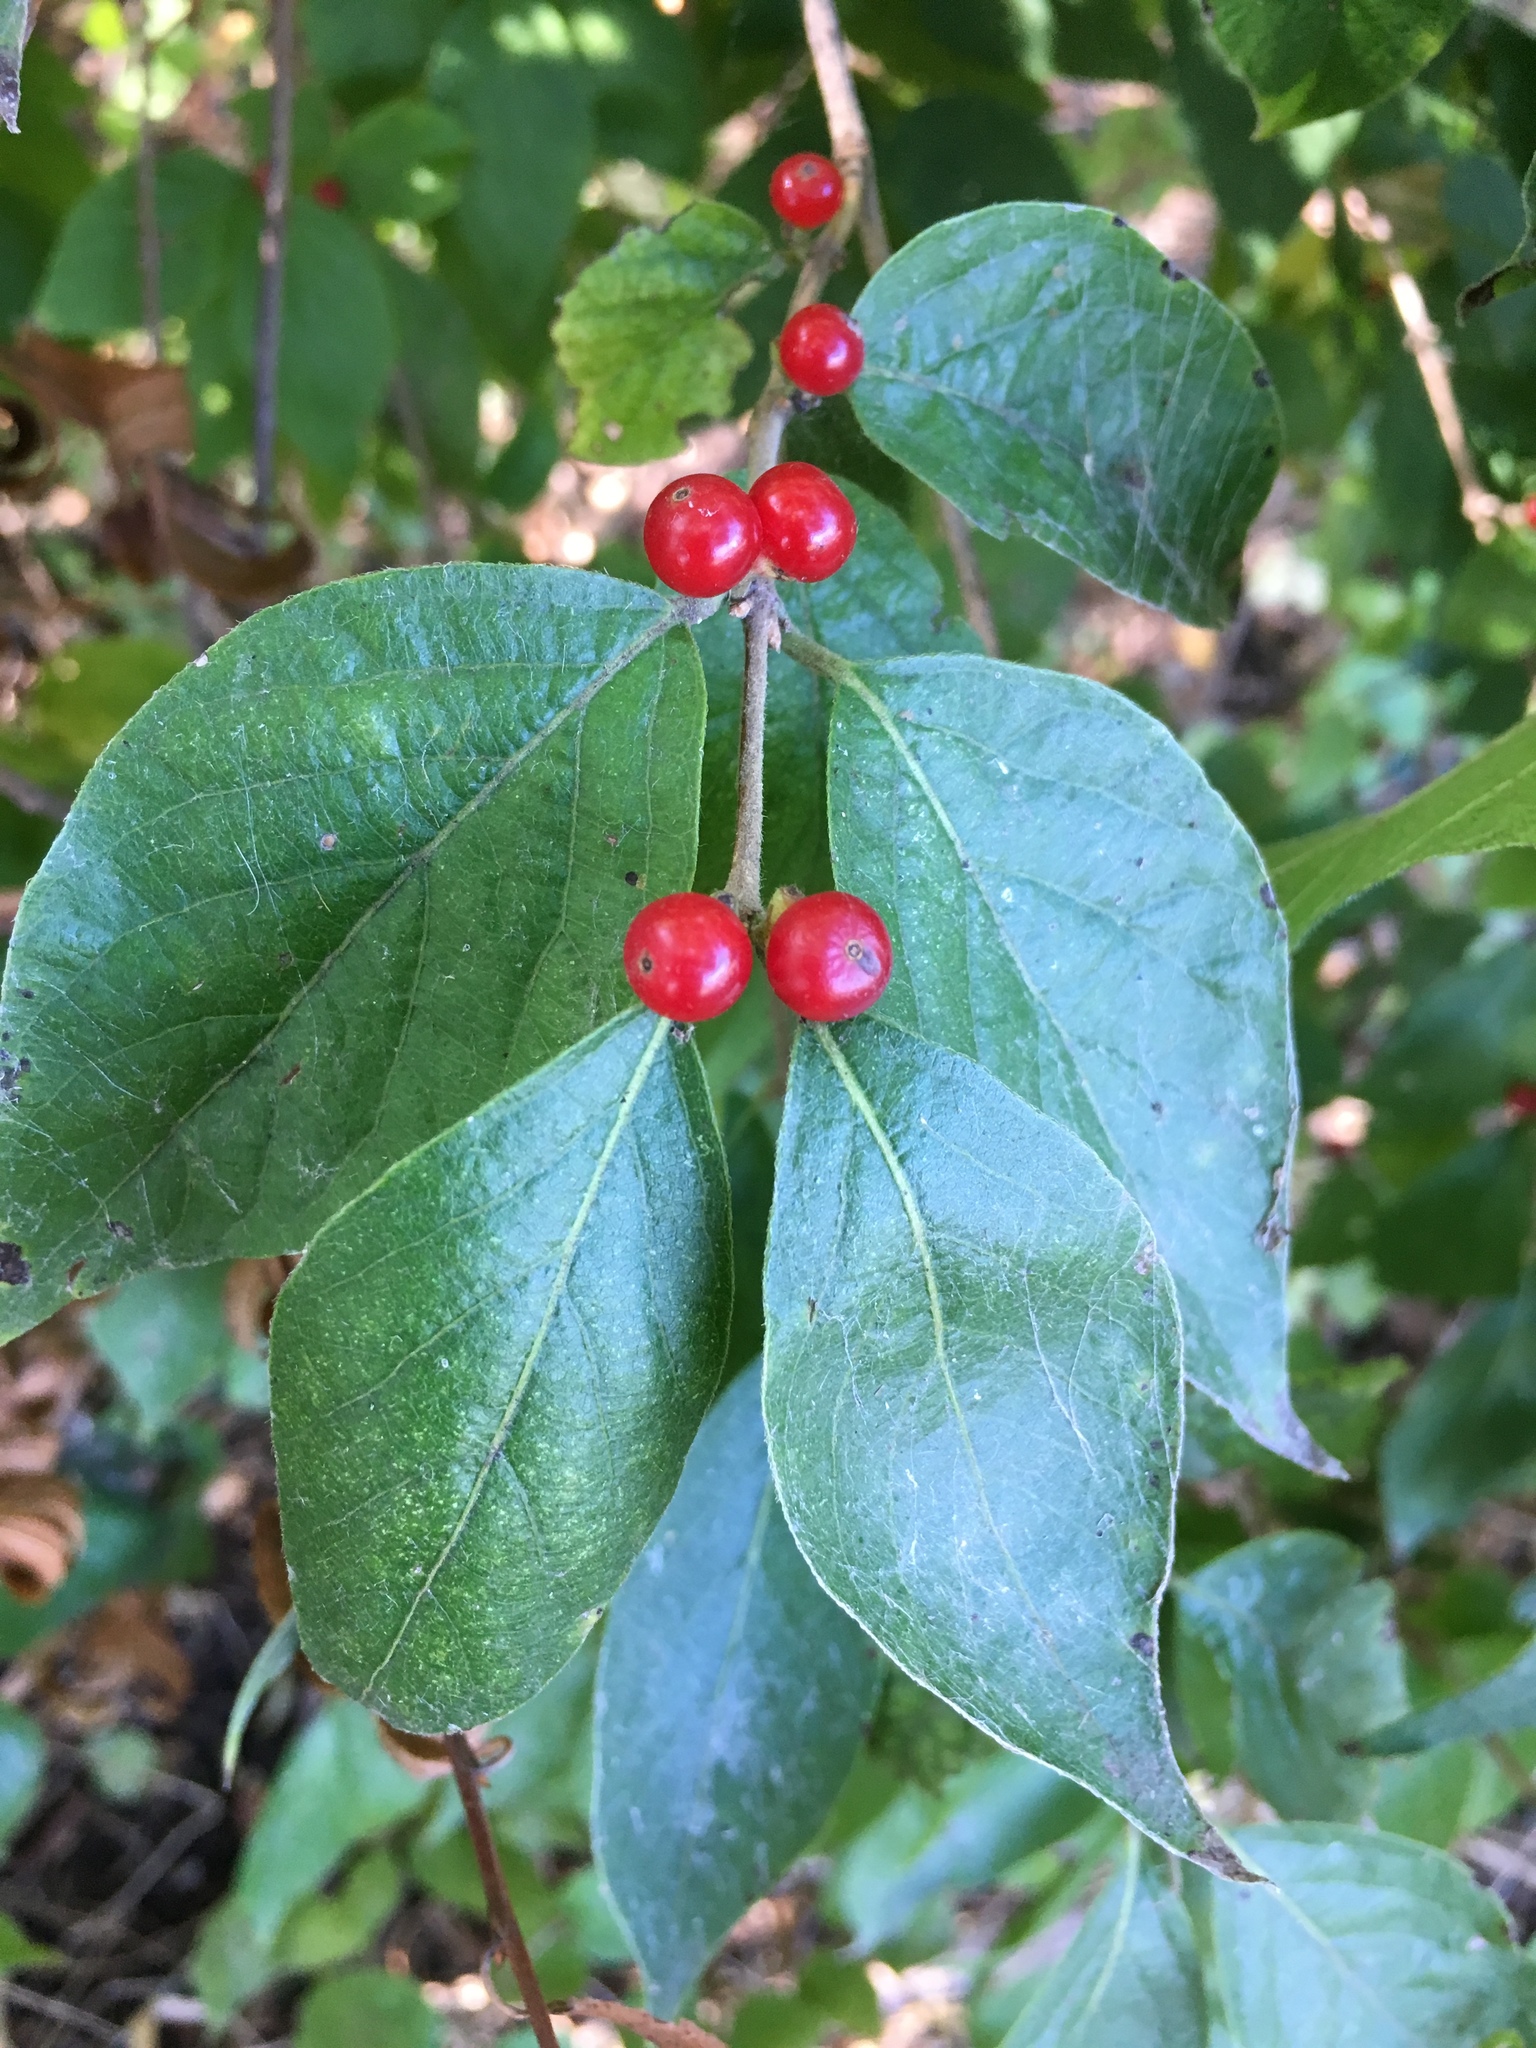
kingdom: Plantae
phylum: Tracheophyta
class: Magnoliopsida
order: Dipsacales
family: Caprifoliaceae
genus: Lonicera
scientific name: Lonicera maackii
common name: Amur honeysuckle
